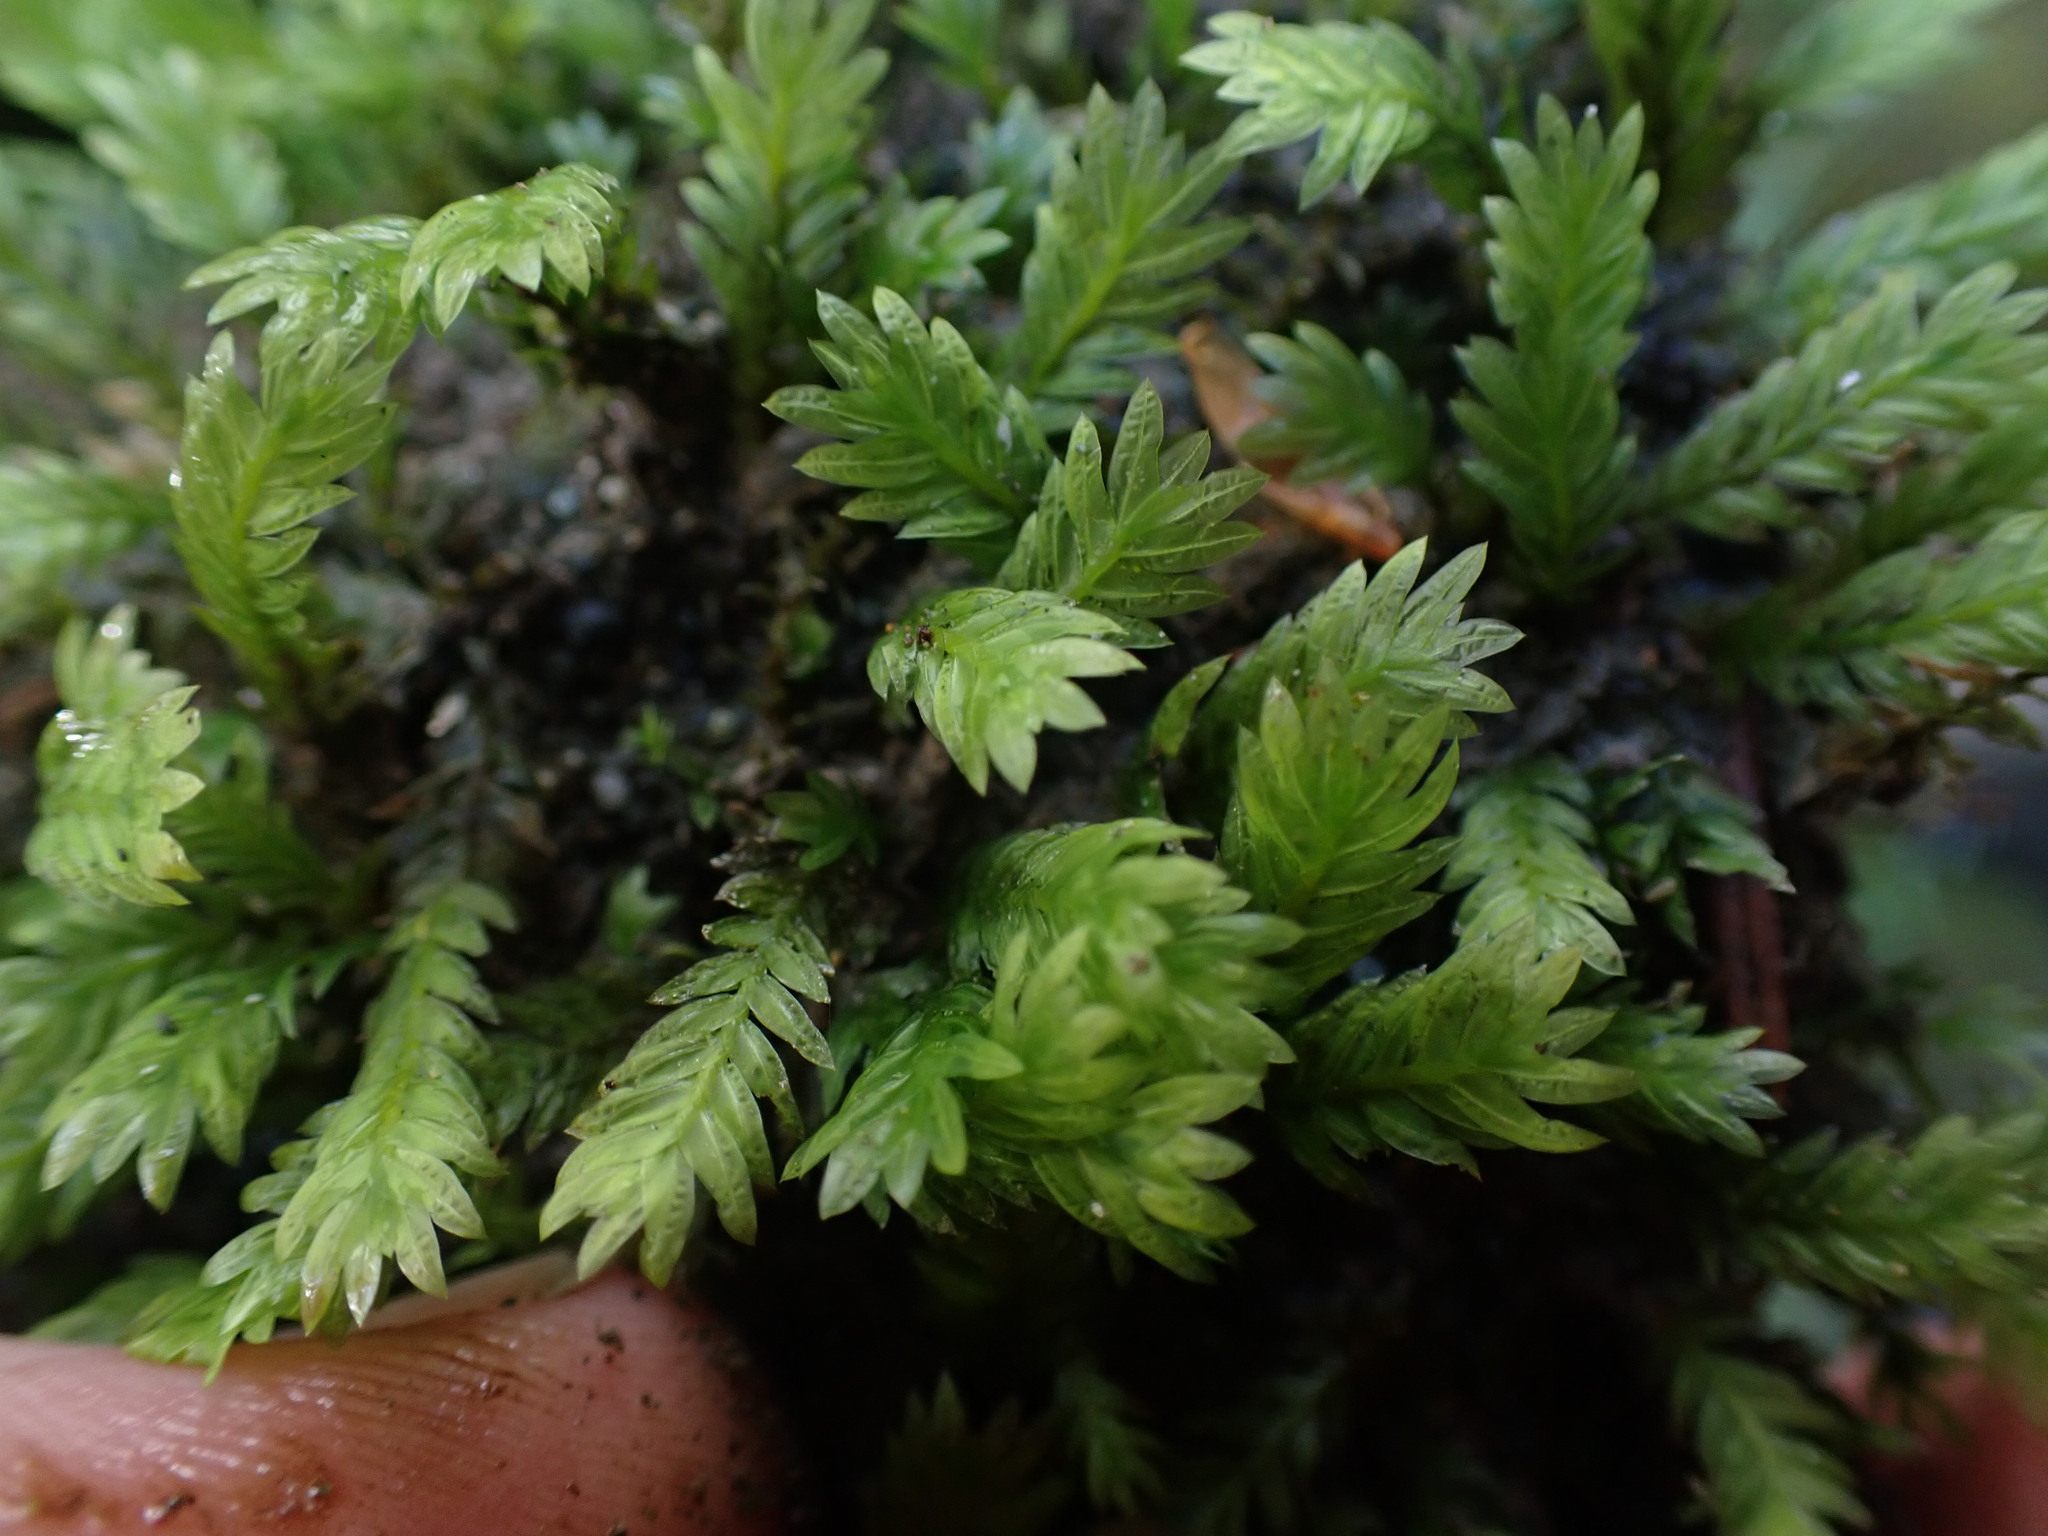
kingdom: Plantae
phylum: Bryophyta
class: Bryopsida
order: Dicranales
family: Fissidentaceae
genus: Fissidens
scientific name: Fissidens adianthoides
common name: Maidenhair pocket moss
